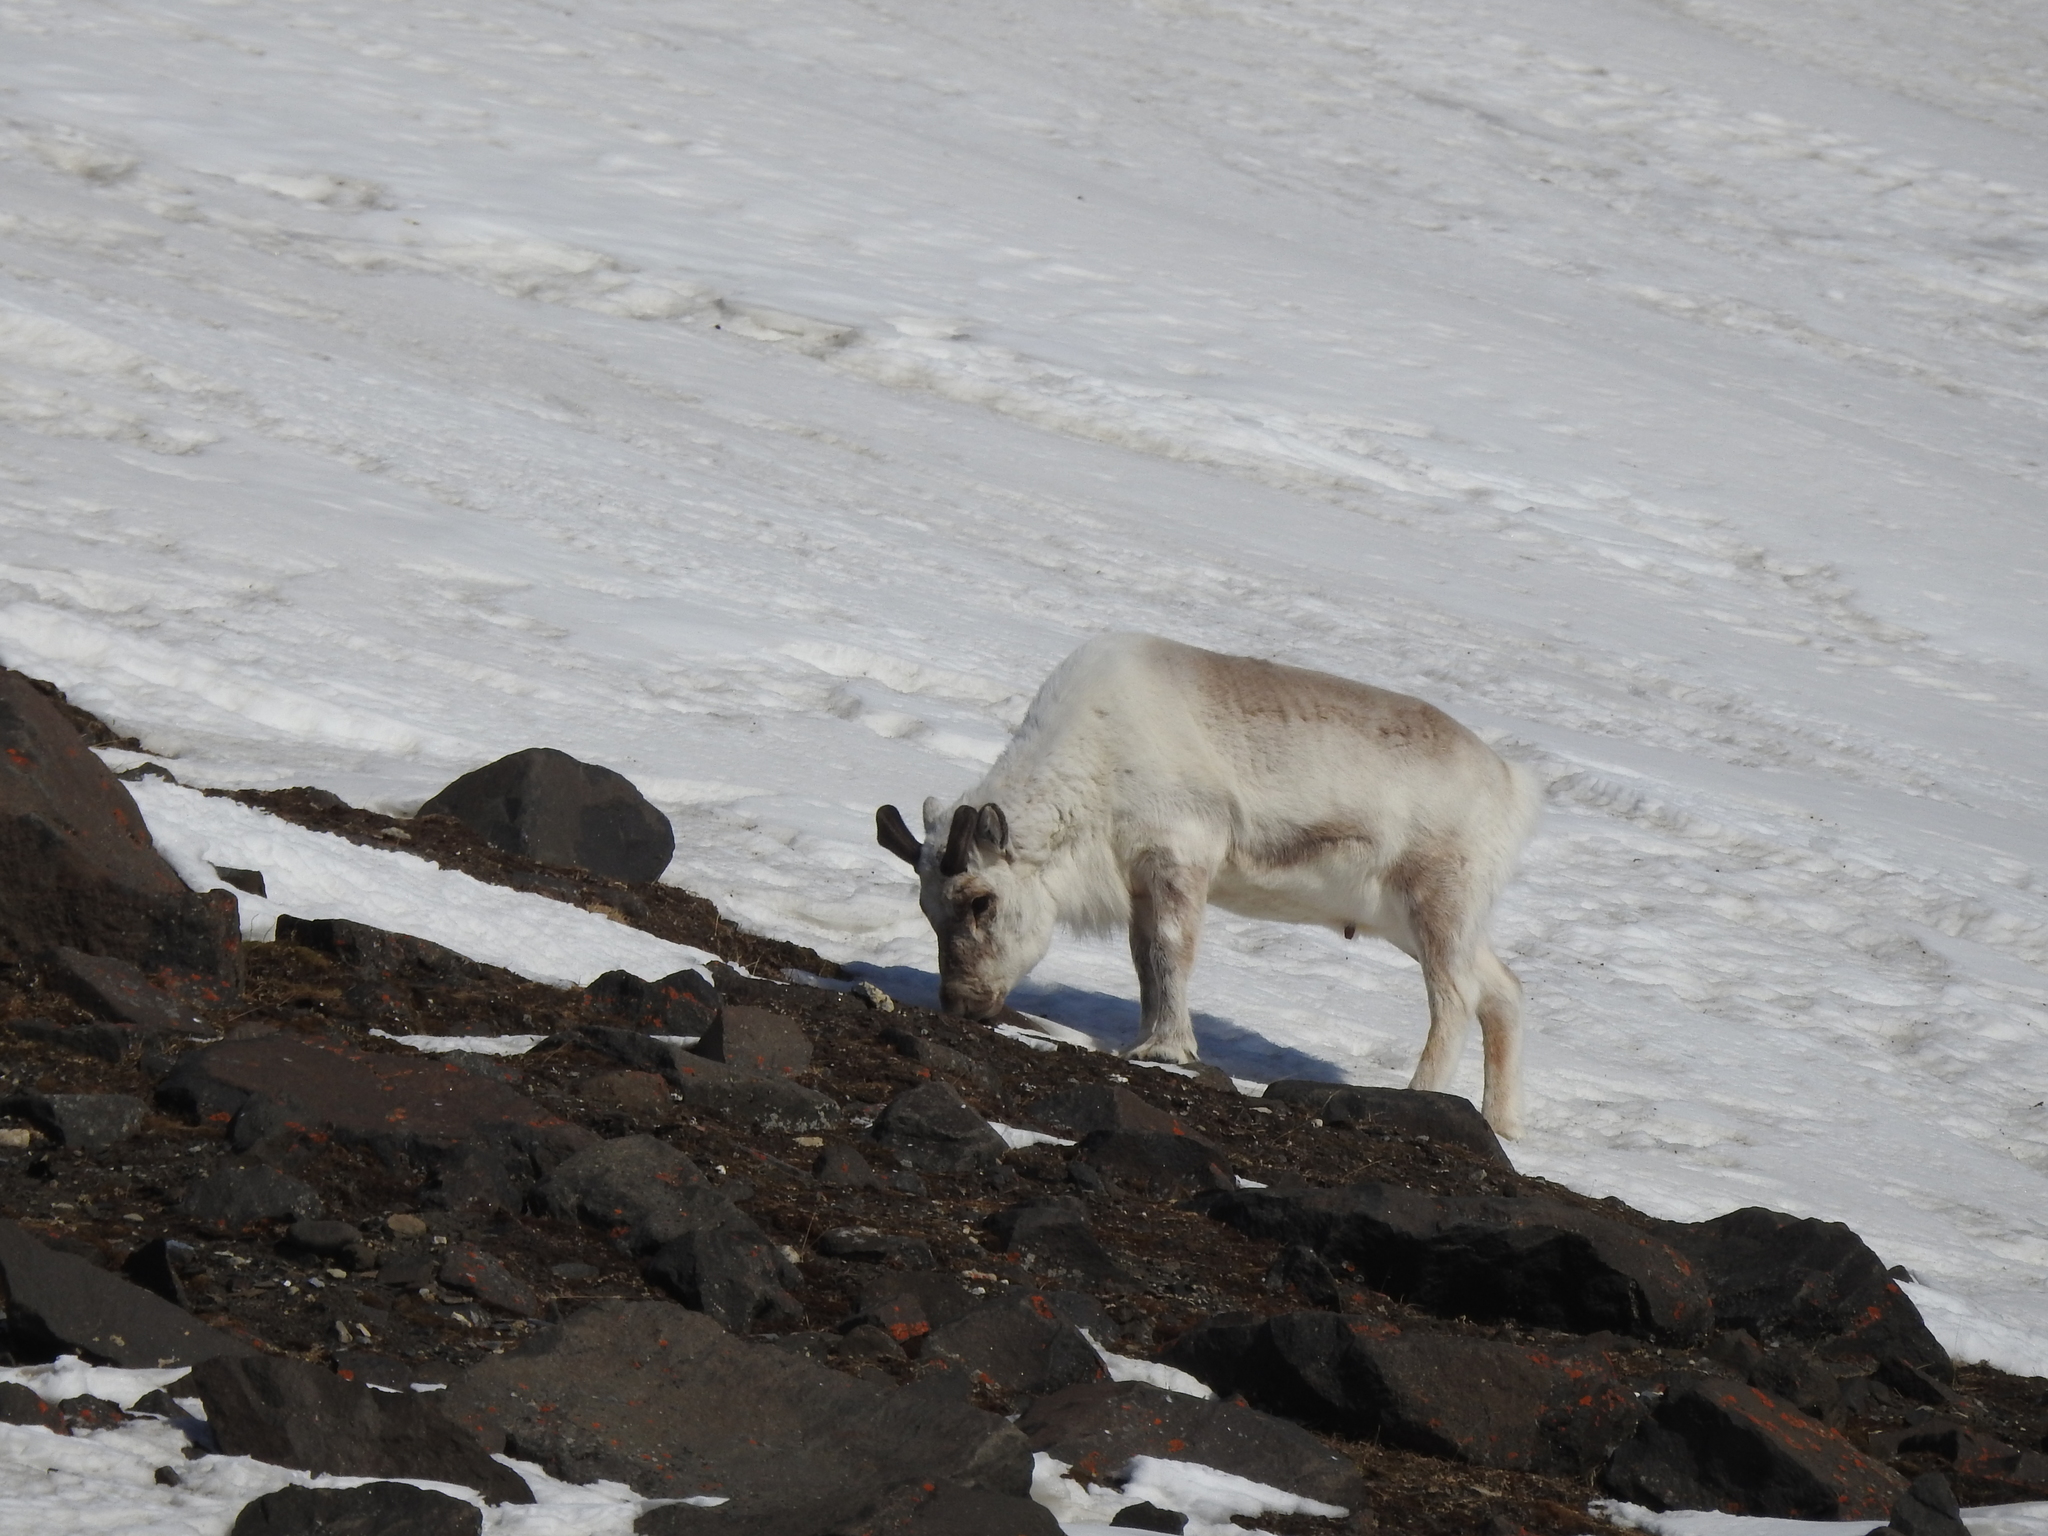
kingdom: Animalia
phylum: Chordata
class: Mammalia
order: Artiodactyla
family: Cervidae
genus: Rangifer
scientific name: Rangifer tarandus
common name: Reindeer
